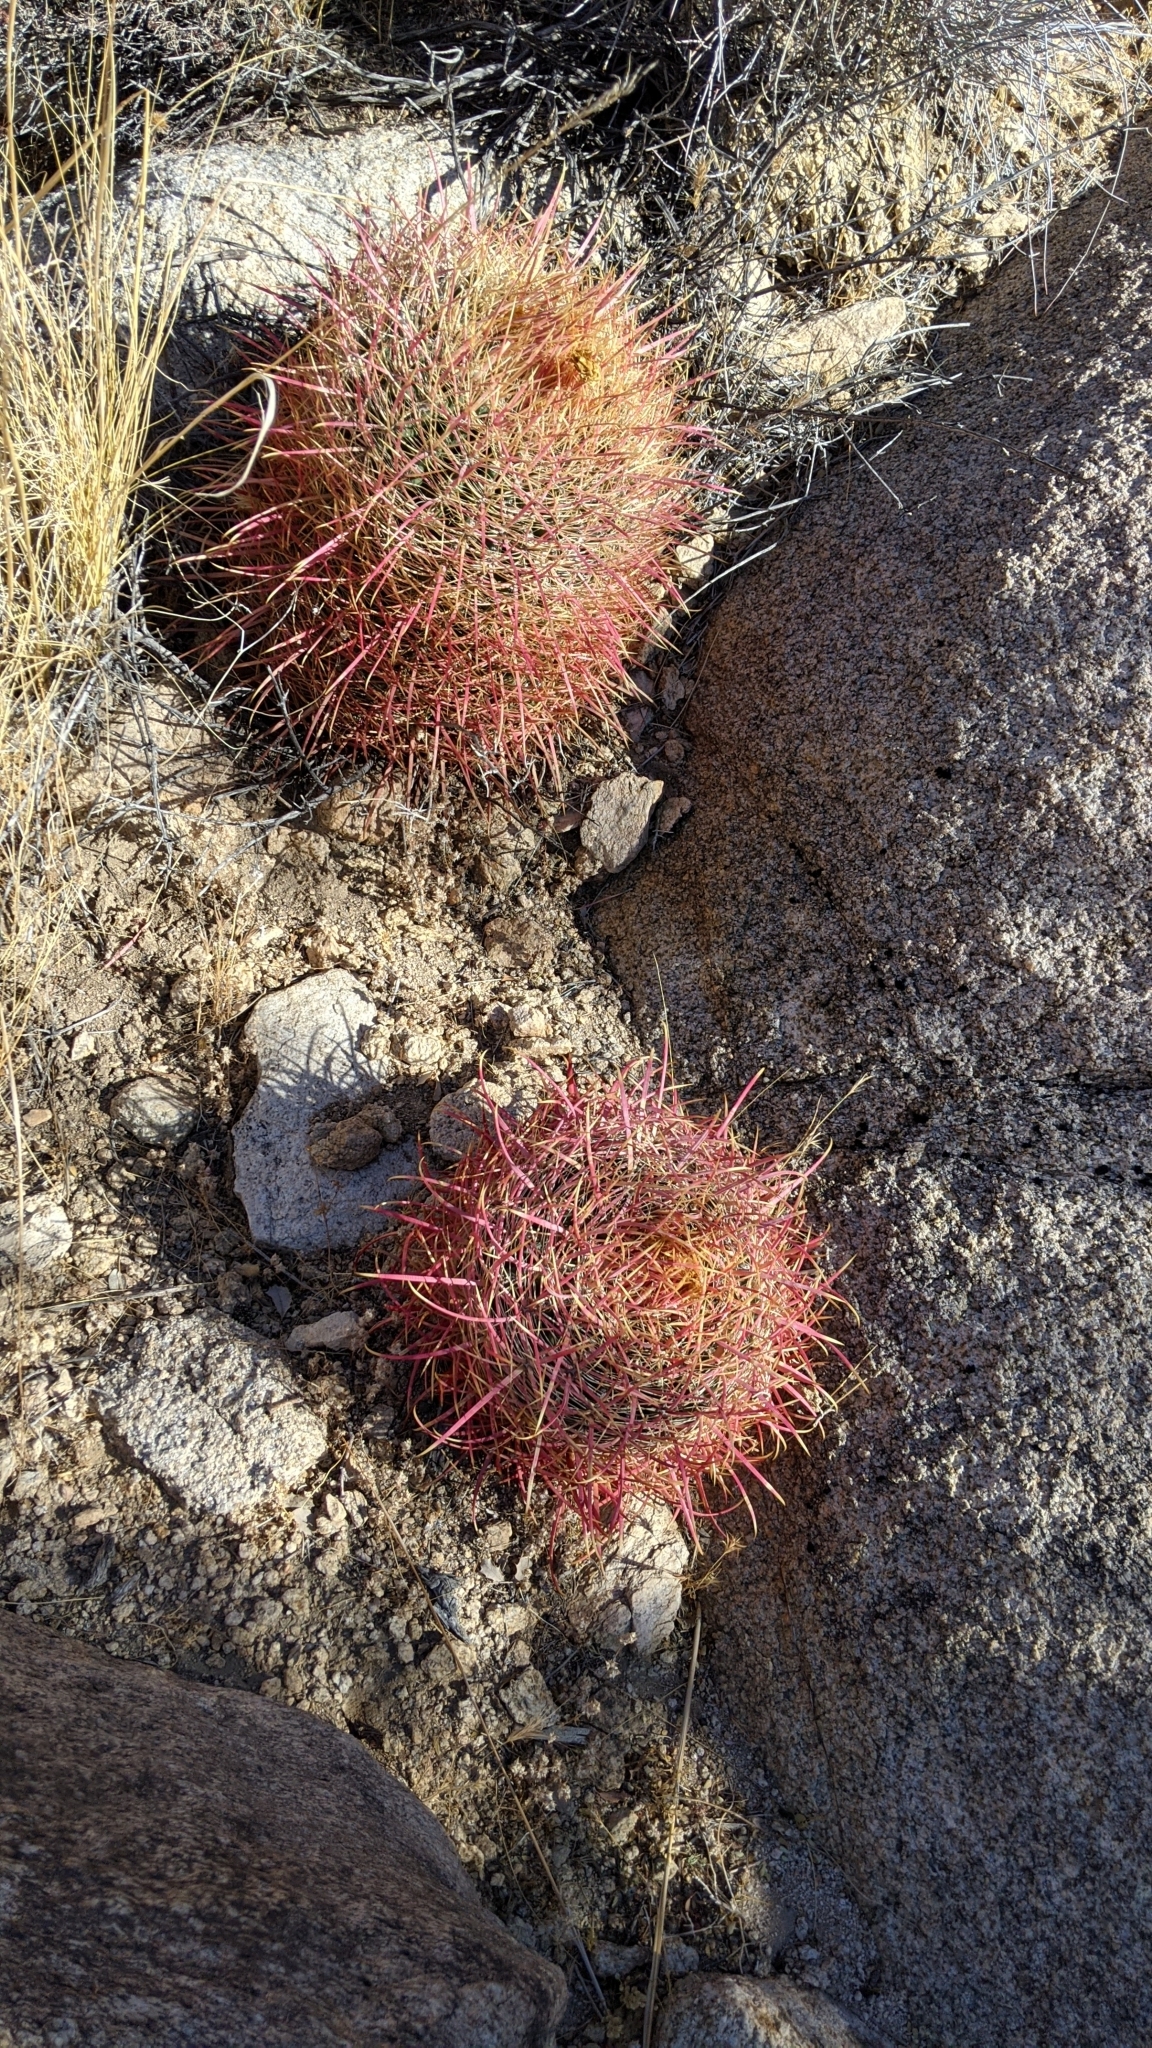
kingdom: Plantae
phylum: Tracheophyta
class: Magnoliopsida
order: Caryophyllales
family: Cactaceae
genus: Ferocactus
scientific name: Ferocactus cylindraceus
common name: California barrel cactus
